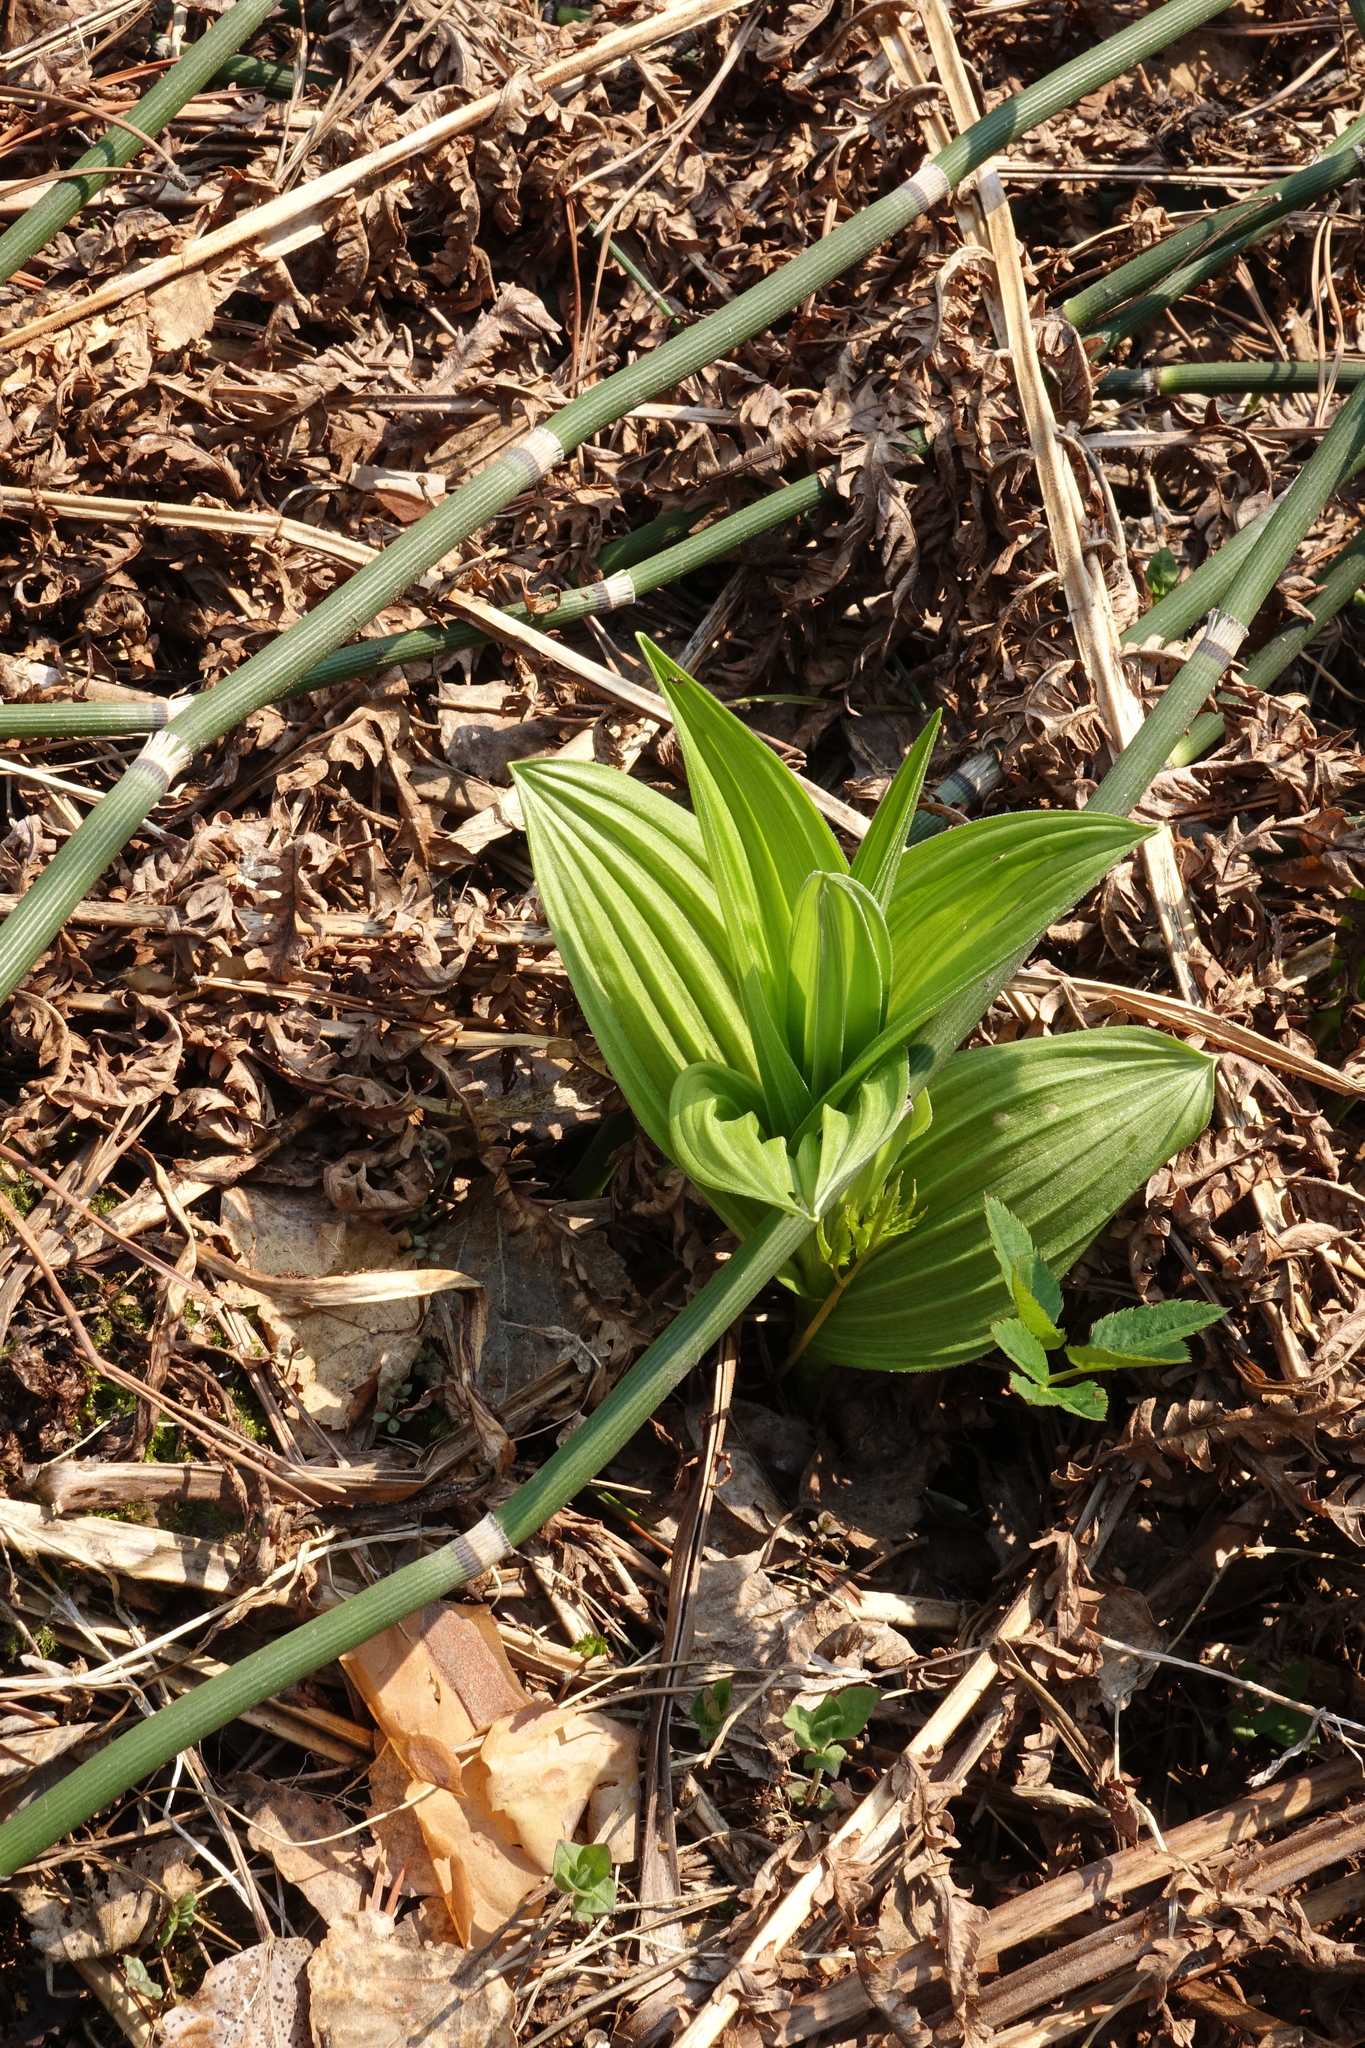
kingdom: Plantae
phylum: Tracheophyta
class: Liliopsida
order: Liliales
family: Melanthiaceae
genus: Veratrum
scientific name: Veratrum lobelianum
